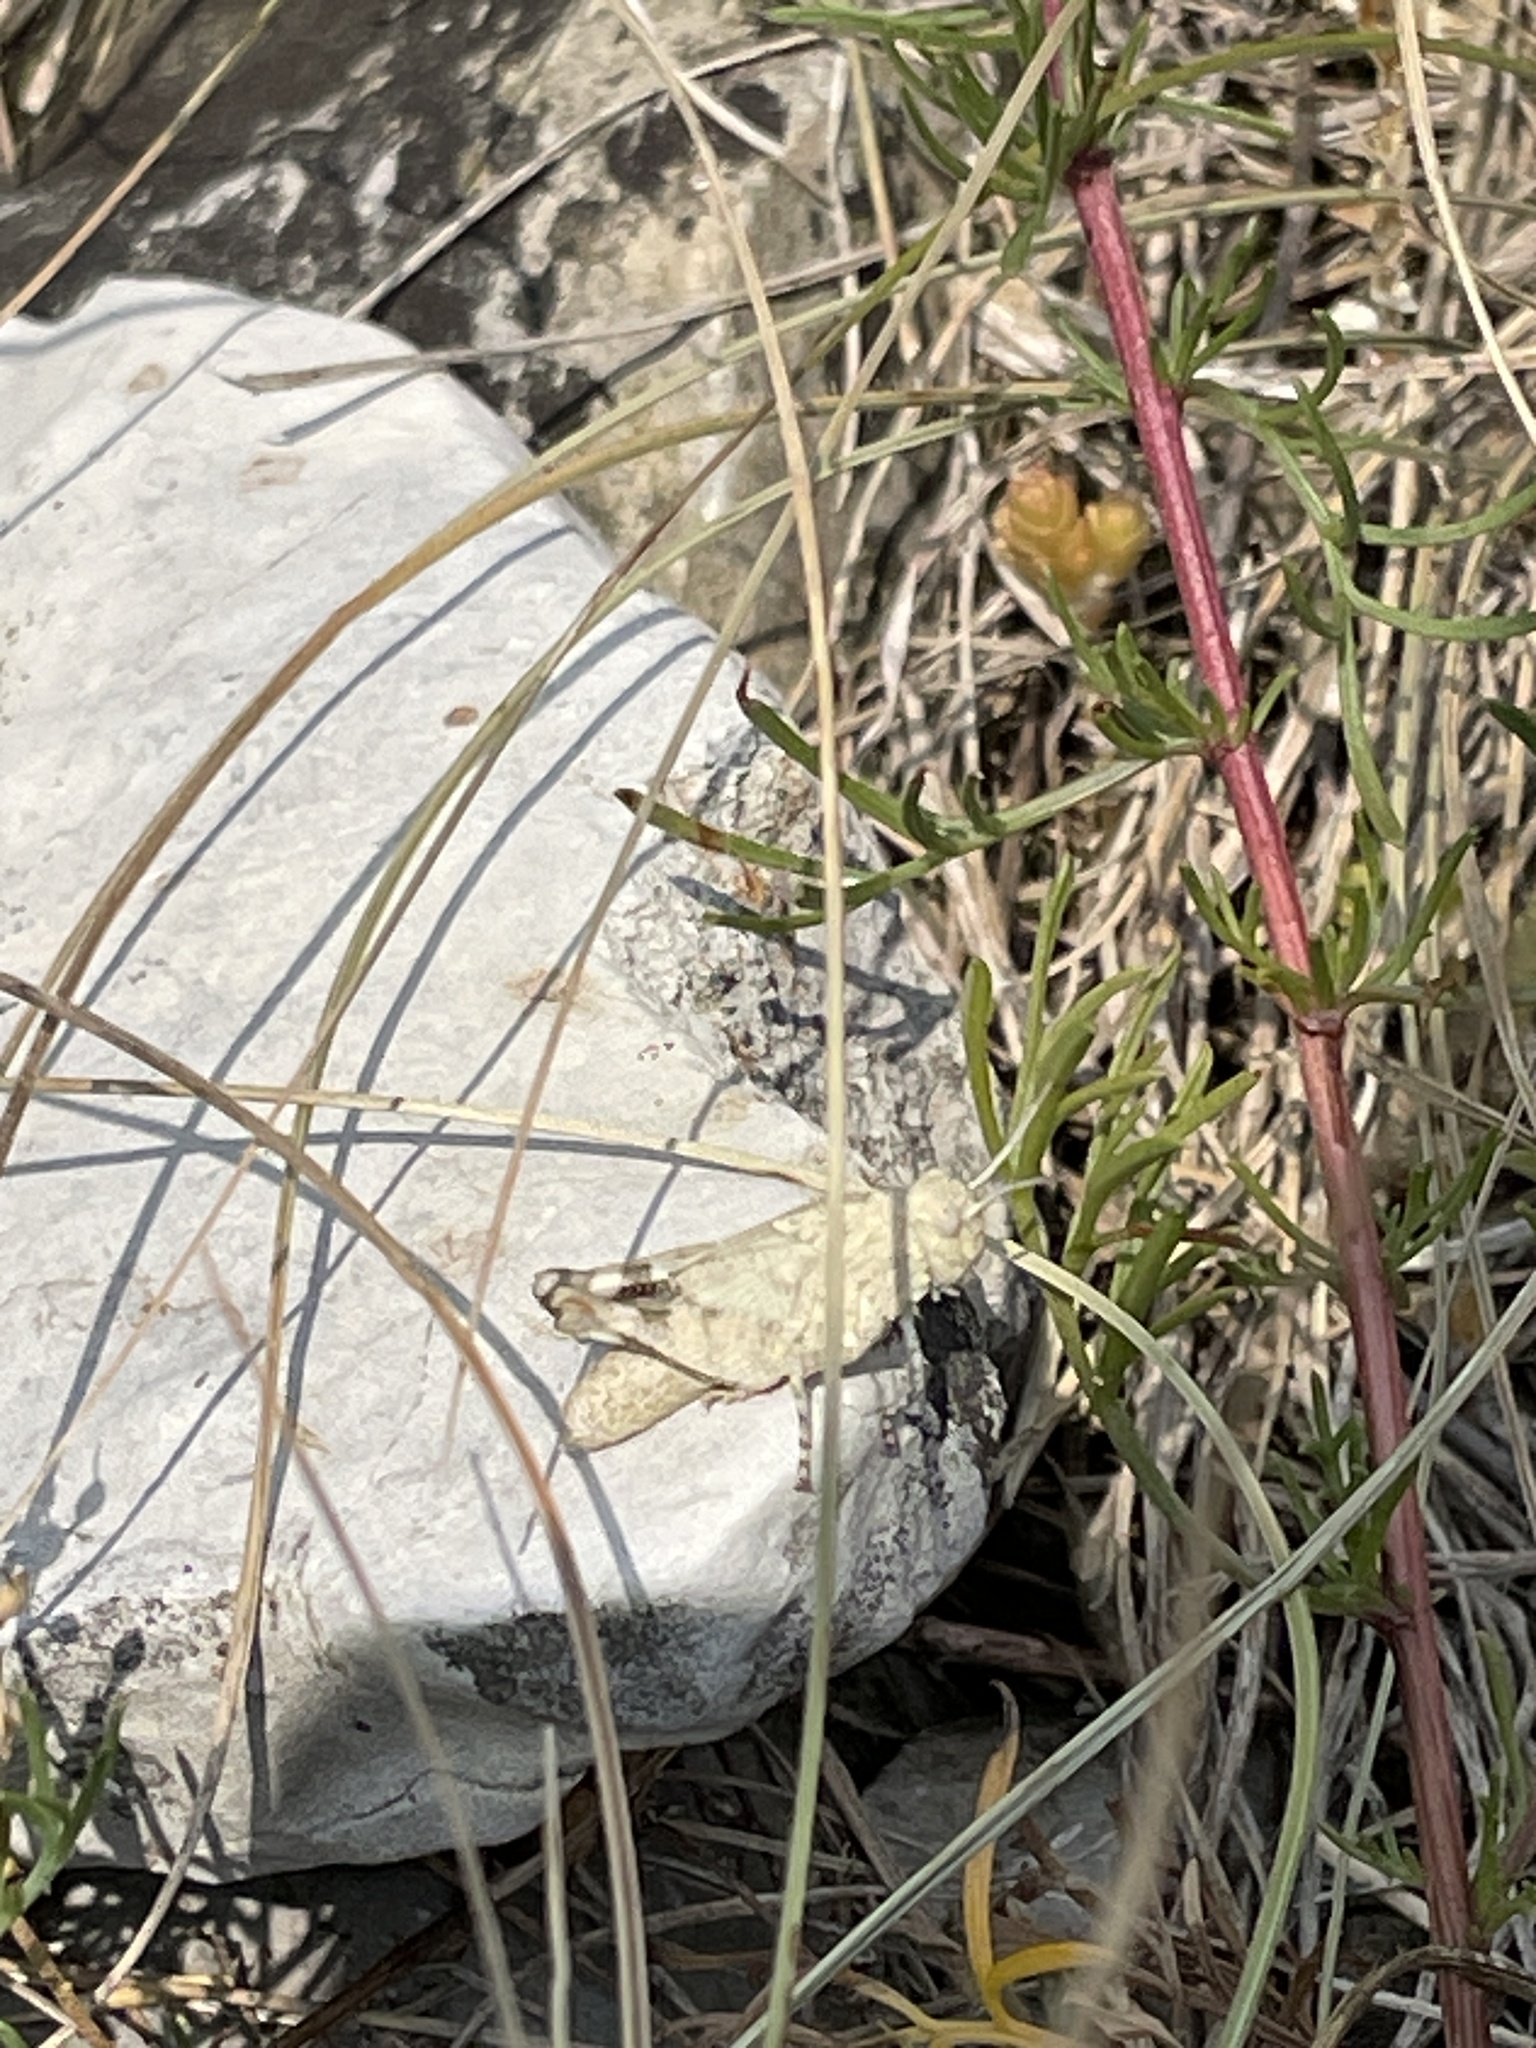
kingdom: Animalia
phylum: Arthropoda
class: Insecta
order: Orthoptera
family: Acrididae
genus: Oedipoda
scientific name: Oedipoda caerulescens
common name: Blue-winged grasshopper
